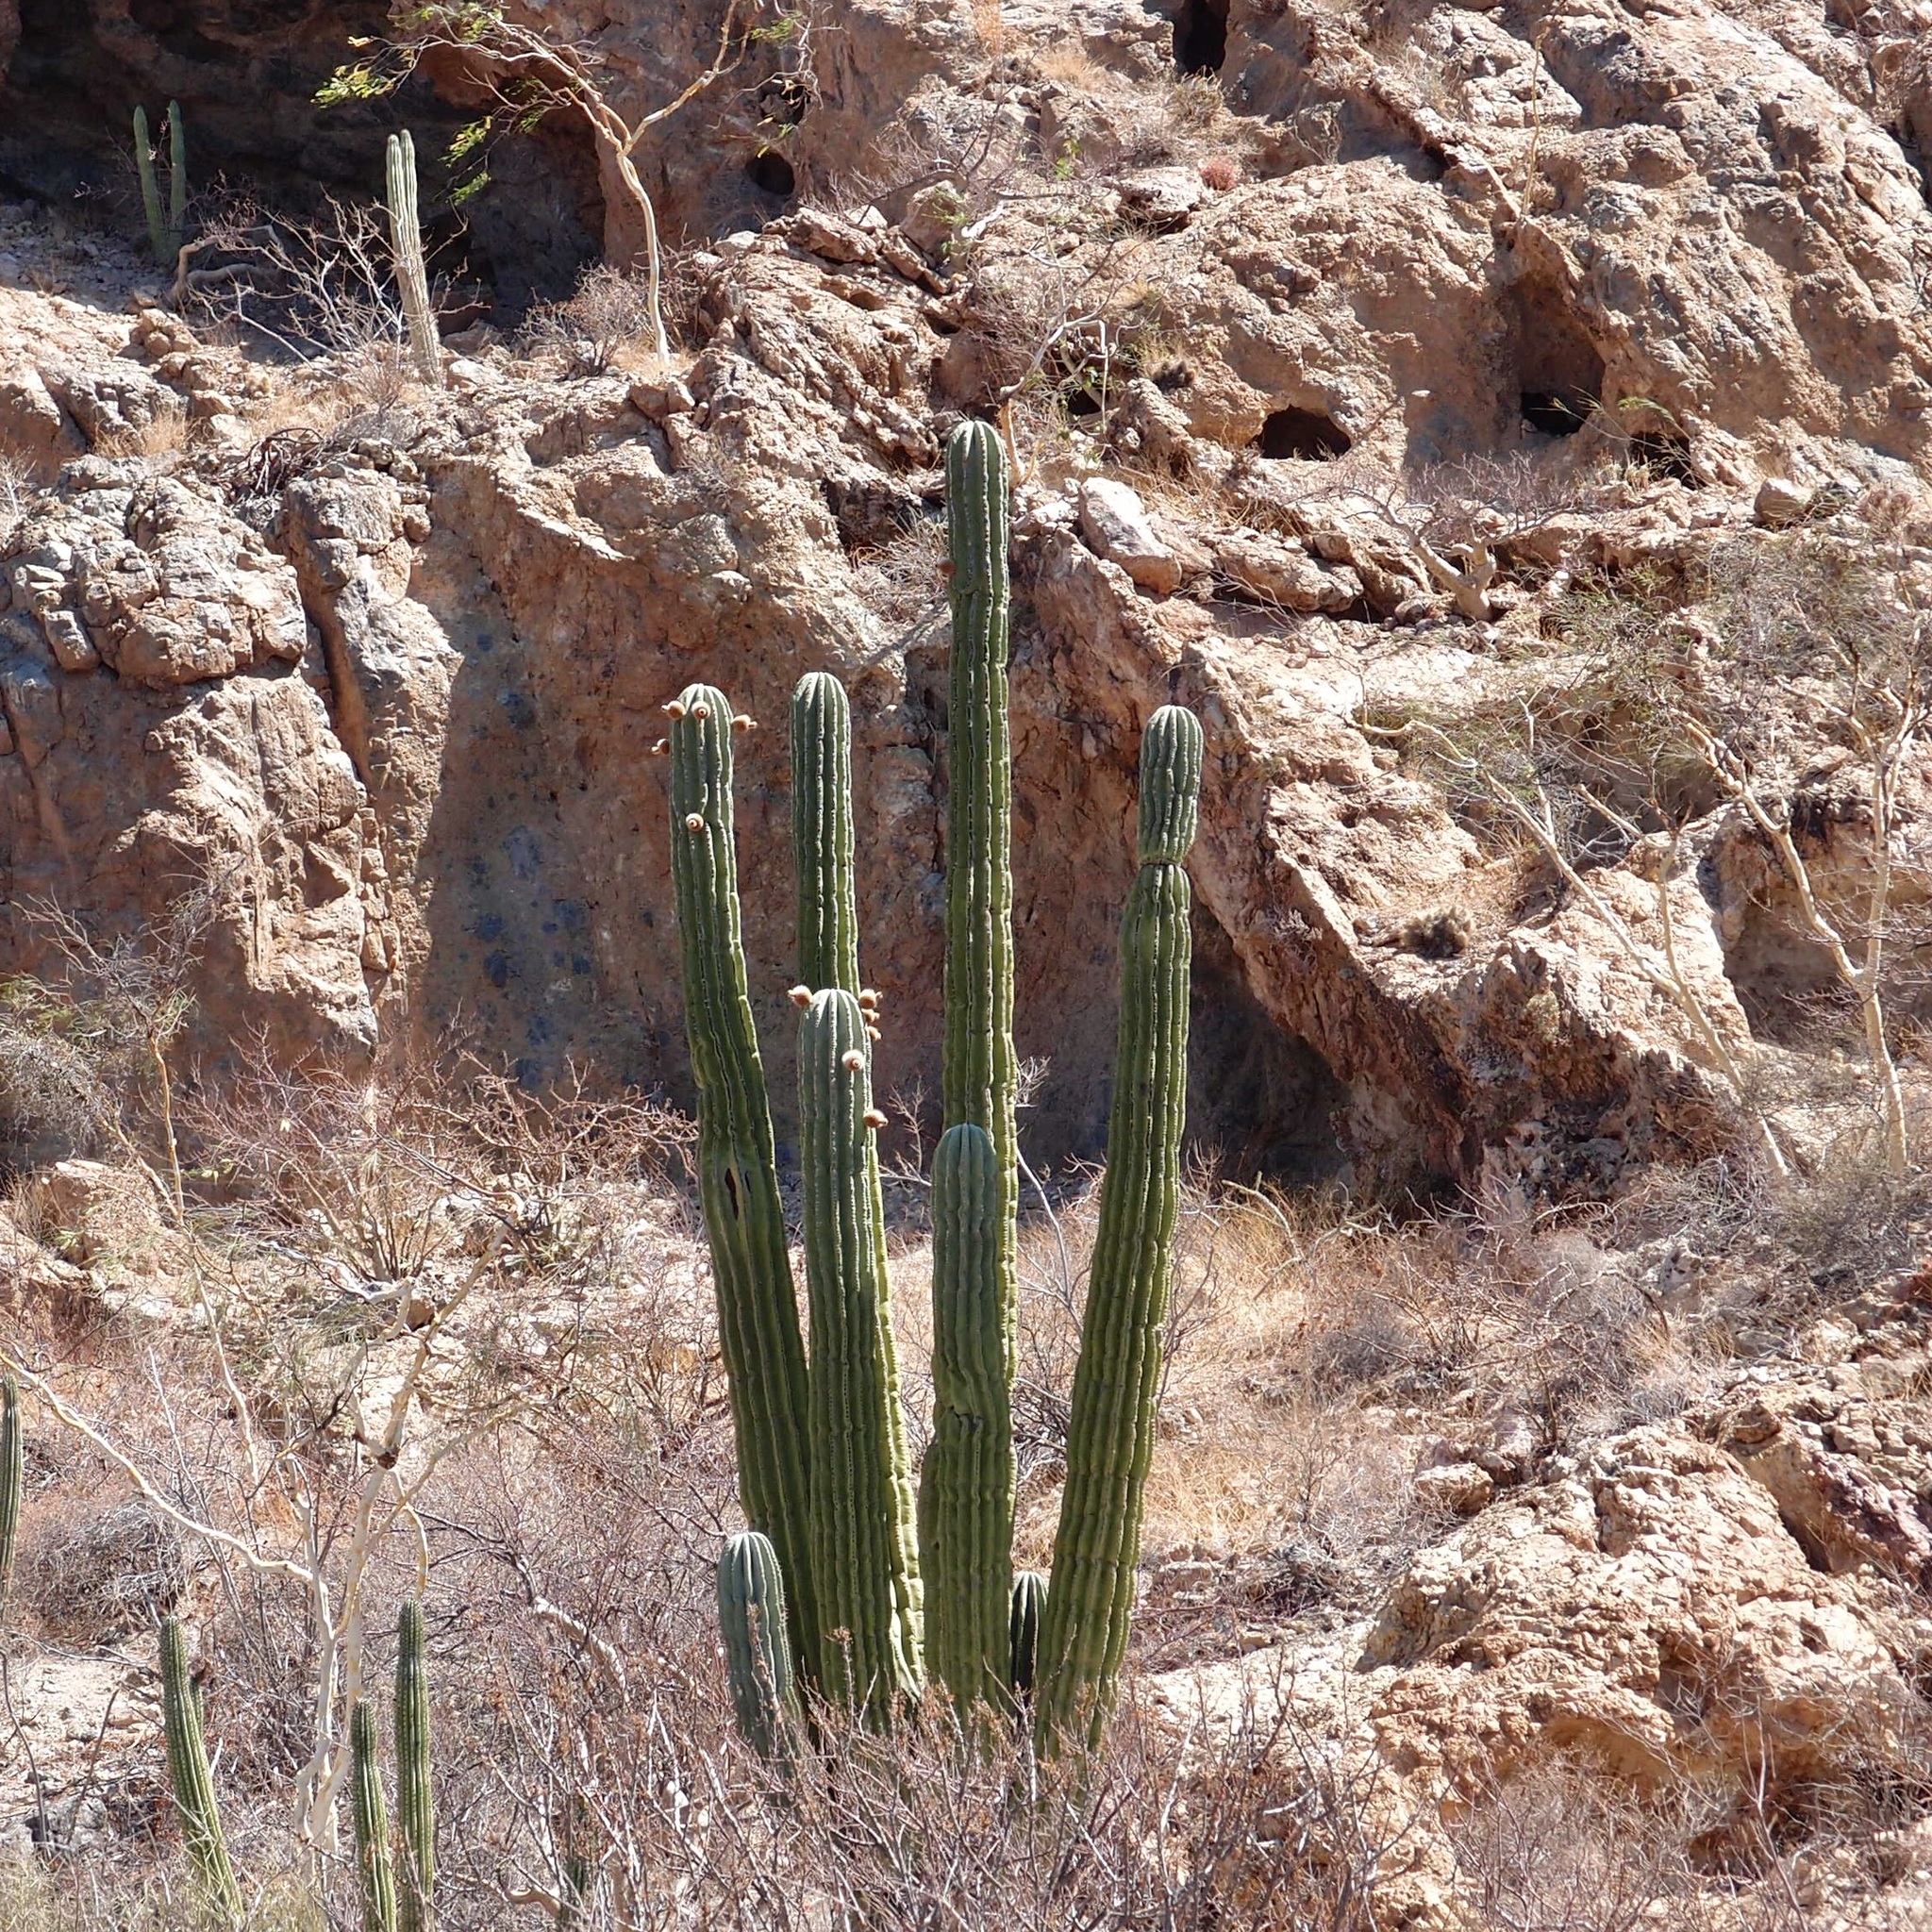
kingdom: Plantae
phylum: Tracheophyta
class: Magnoliopsida
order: Caryophyllales
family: Cactaceae
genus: Pachycereus
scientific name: Pachycereus pringlei
